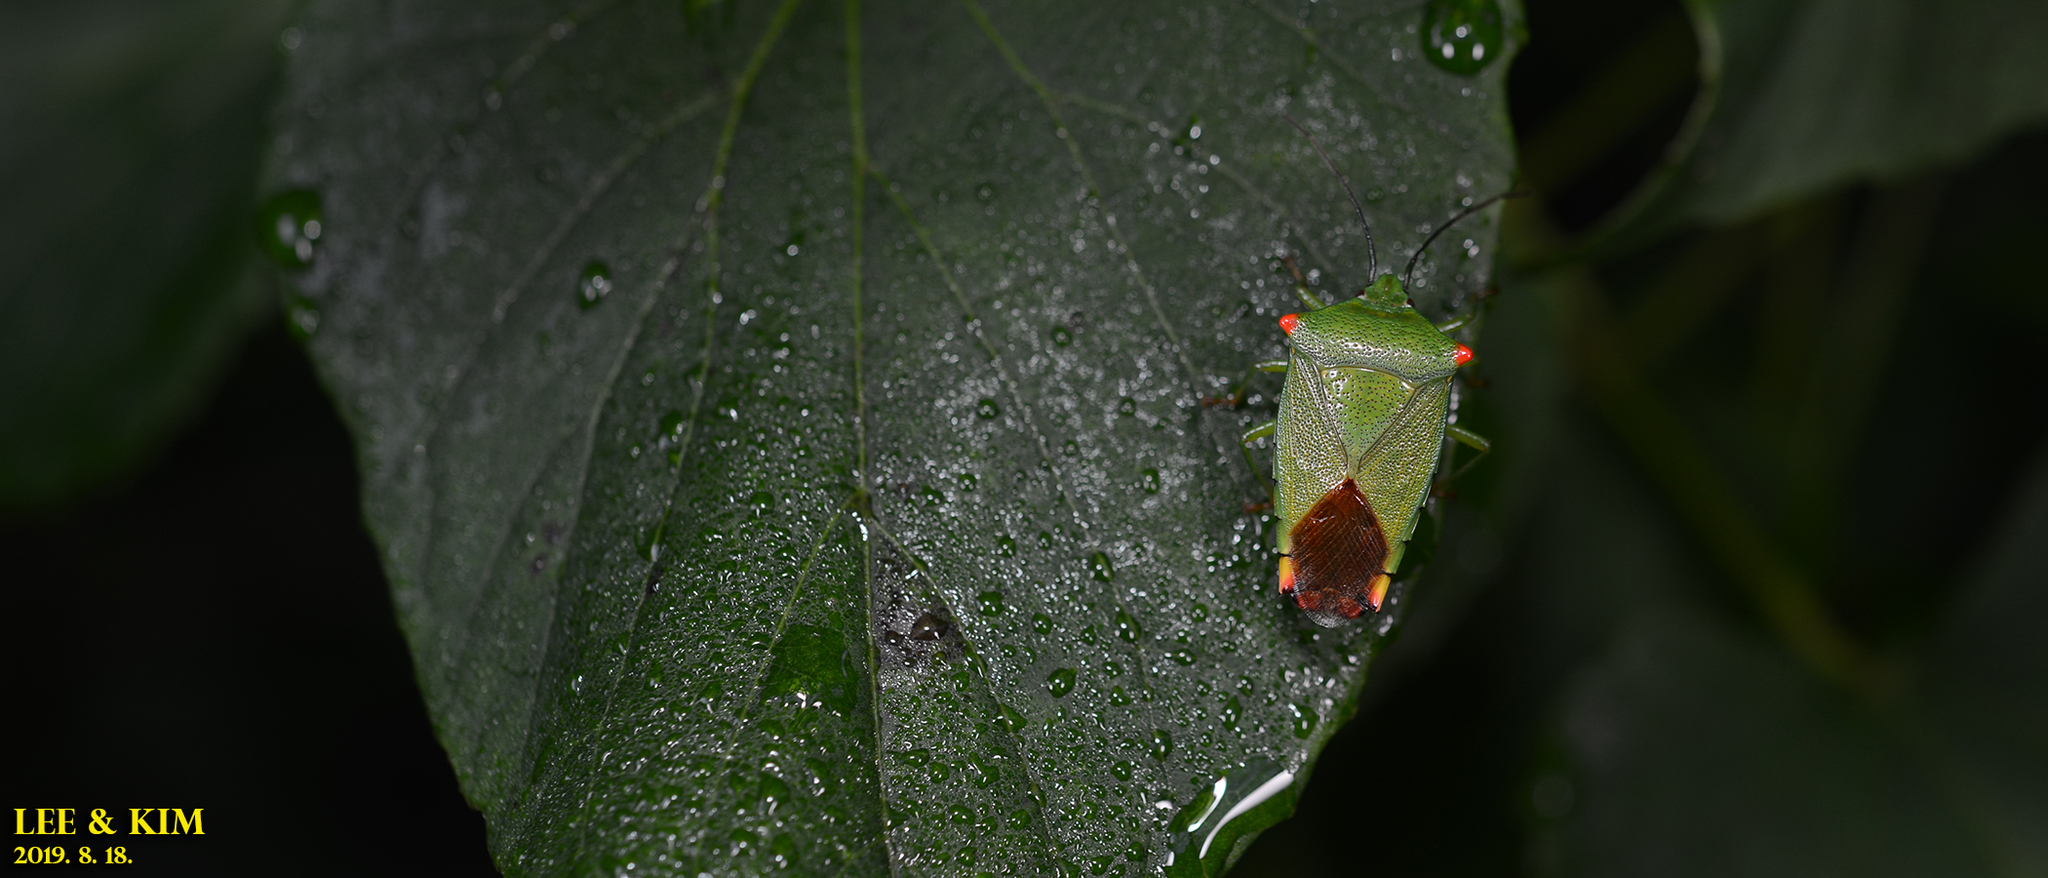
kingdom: Animalia
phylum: Arthropoda
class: Insecta
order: Hemiptera
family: Acanthosomatidae
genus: Acanthosoma
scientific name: Acanthosoma labiduroides
